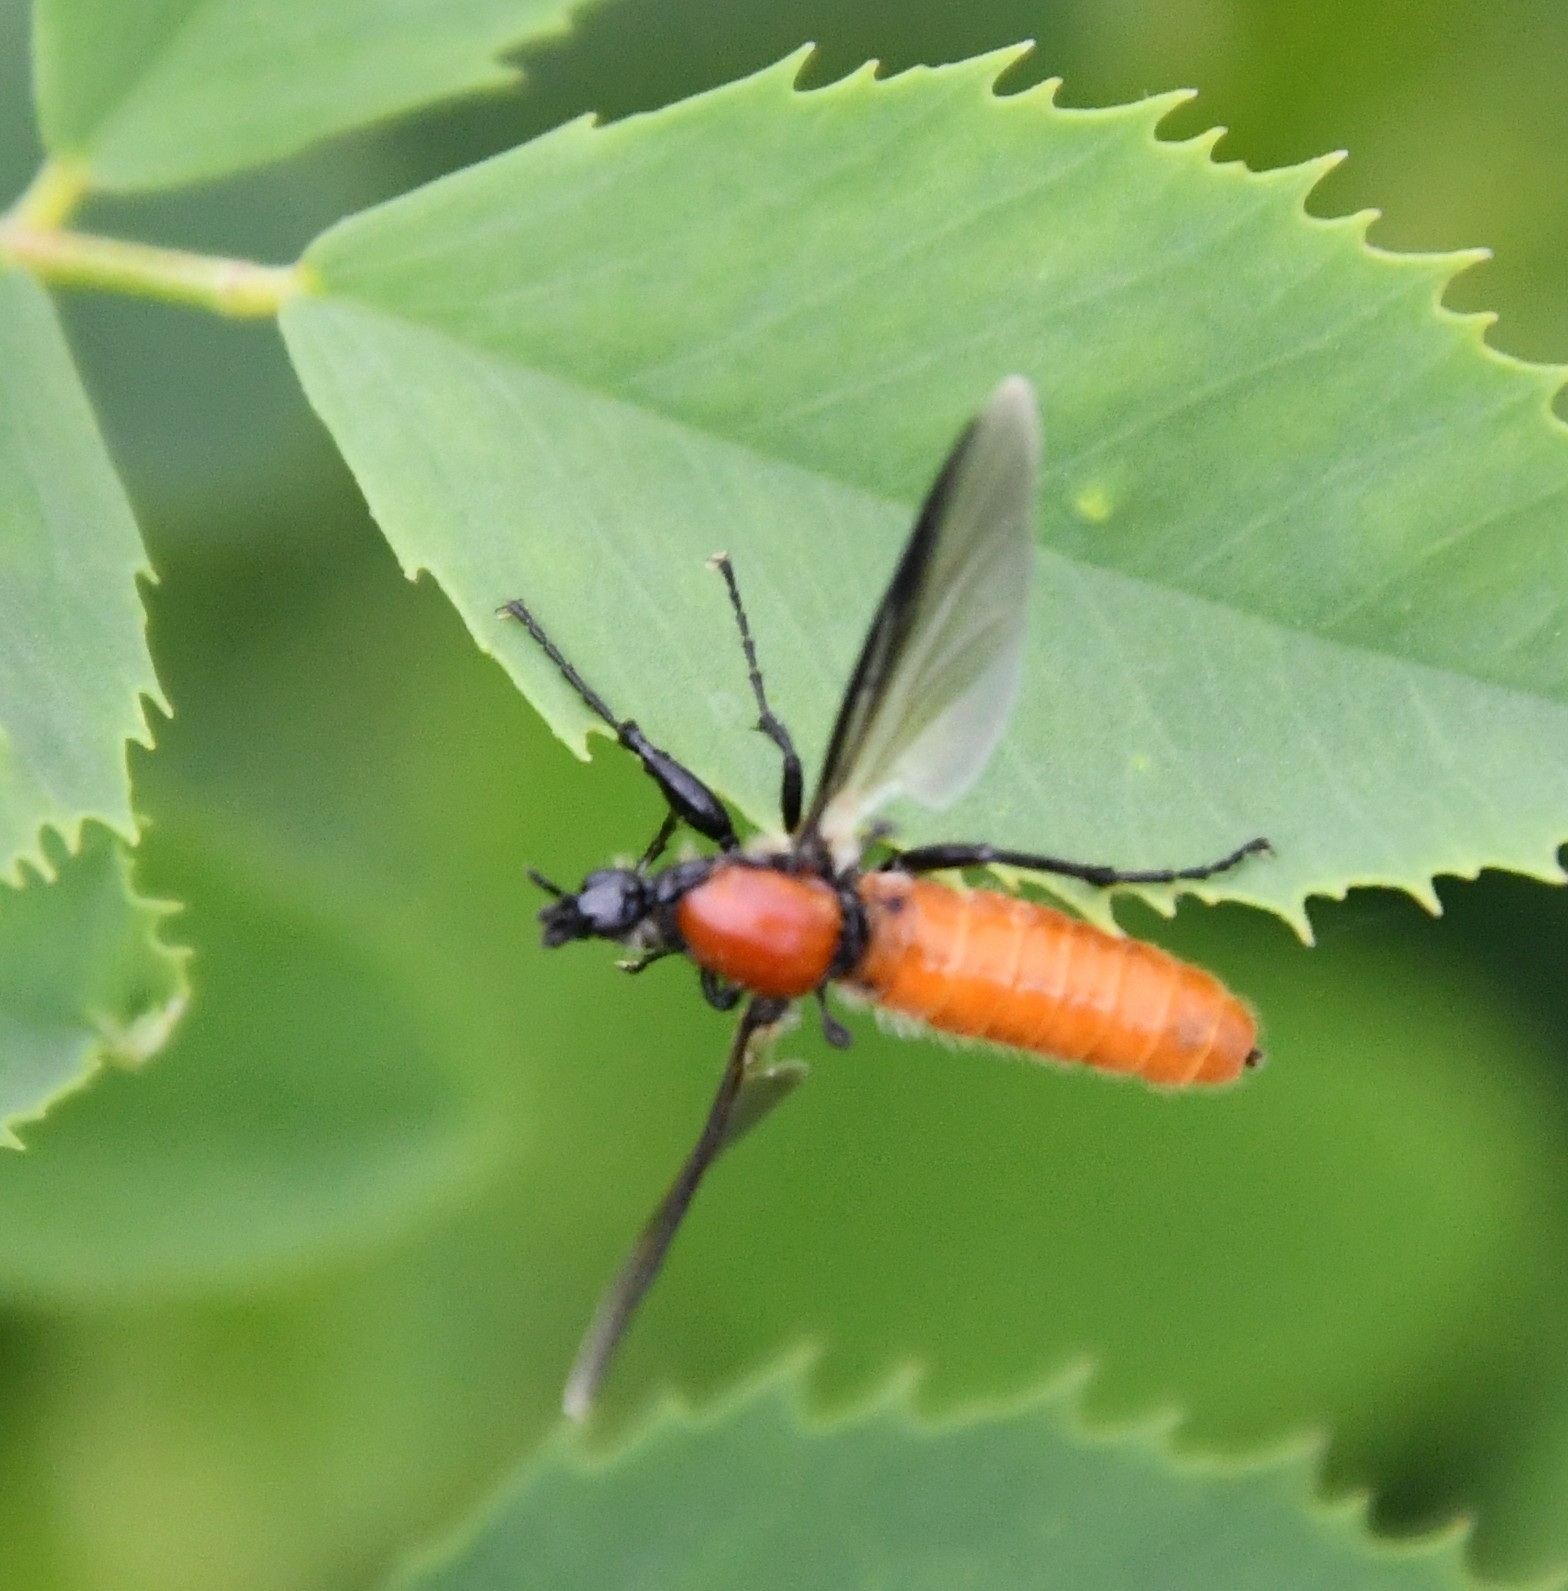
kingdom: Animalia
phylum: Arthropoda
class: Insecta
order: Diptera
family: Bibionidae
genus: Bibio
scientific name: Bibio hortulanus
